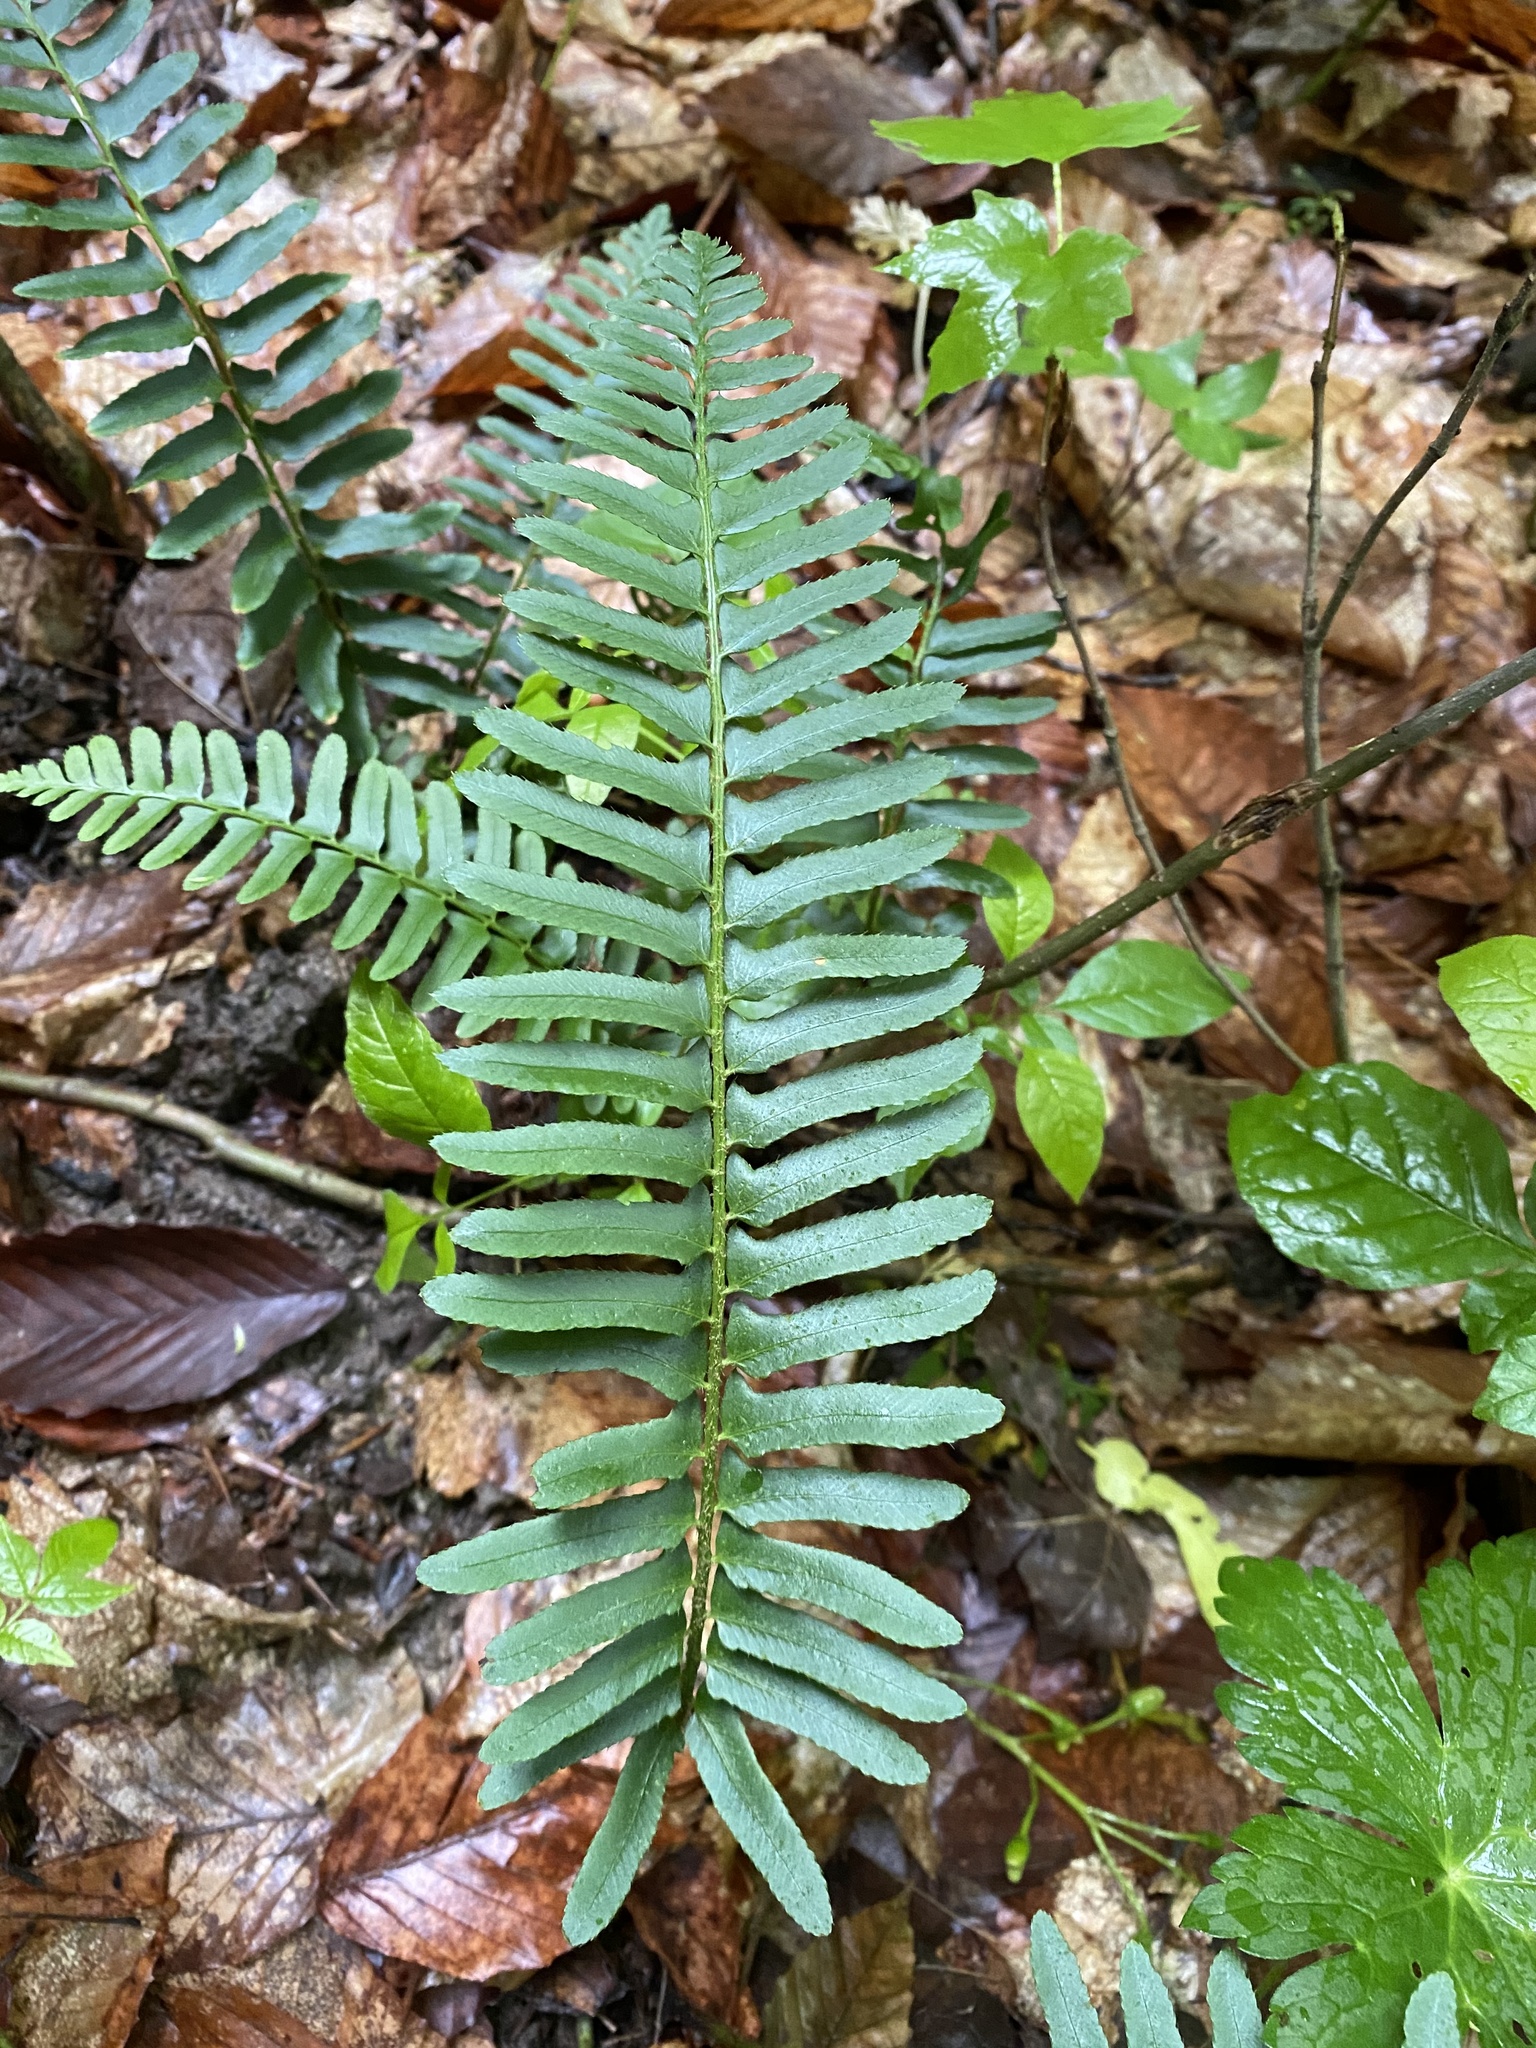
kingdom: Plantae
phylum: Tracheophyta
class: Polypodiopsida
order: Polypodiales
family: Dryopteridaceae
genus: Polystichum
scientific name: Polystichum acrostichoides
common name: Christmas fern
